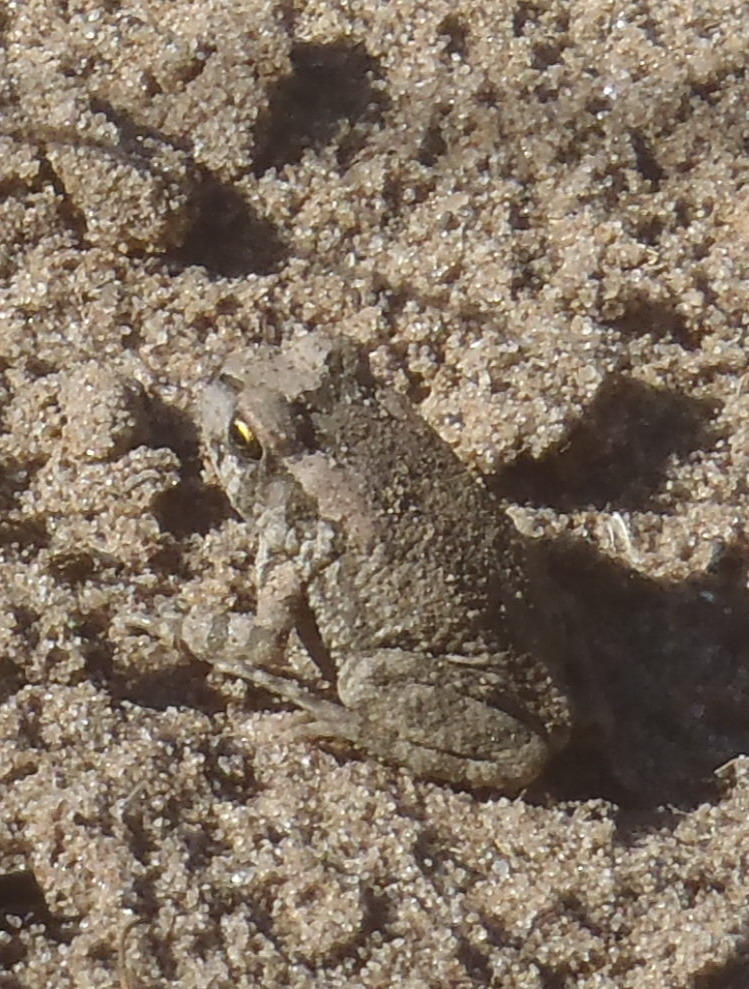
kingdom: Animalia
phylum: Chordata
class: Amphibia
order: Anura
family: Bufonidae
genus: Sclerophrys
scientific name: Sclerophrys capensis
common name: Ranger’s toad
